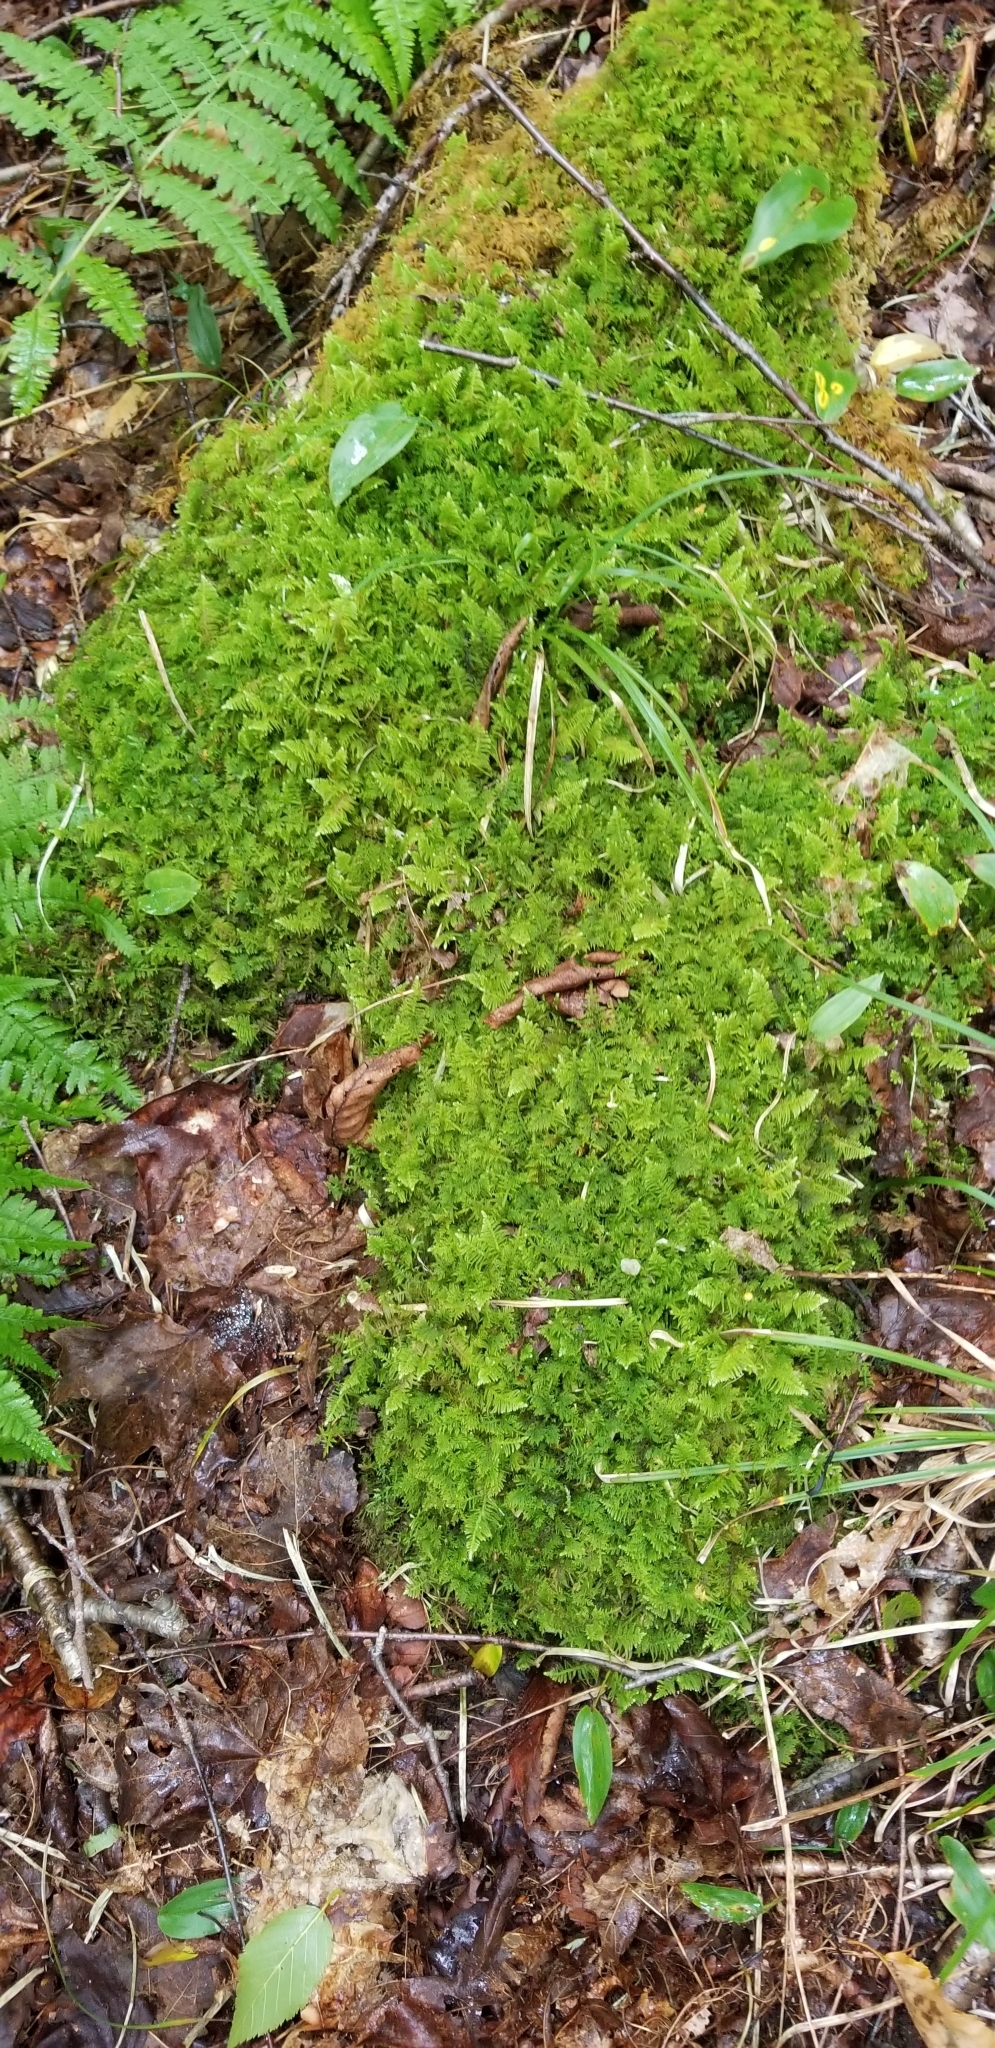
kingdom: Plantae
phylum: Bryophyta
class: Bryopsida
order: Hypnales
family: Pylaisiaceae
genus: Ptilium
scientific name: Ptilium crista-castrensis
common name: Knight's plume moss
